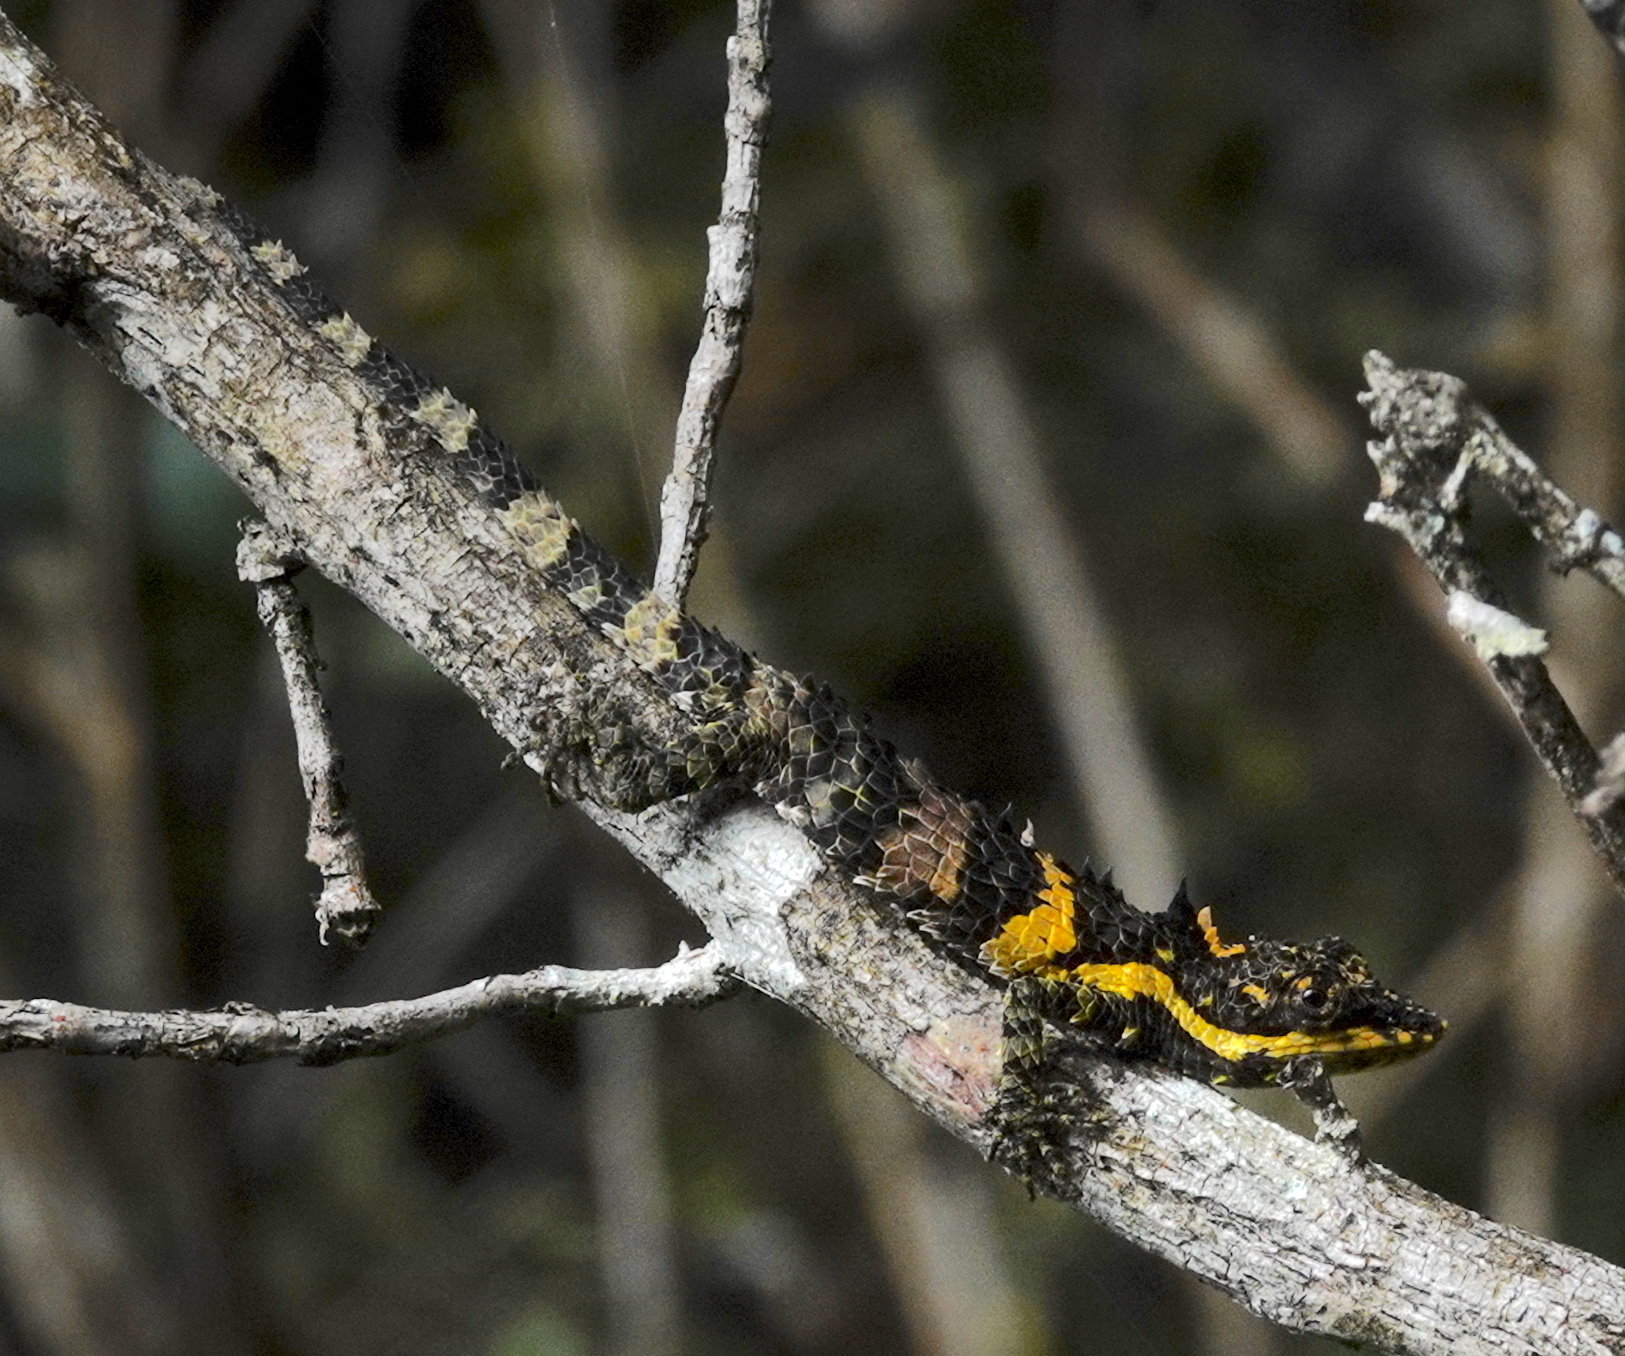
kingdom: Animalia
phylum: Chordata
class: Squamata
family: Agamidae
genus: Cophotis
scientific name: Cophotis ceylanica
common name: Ceylon deaf agama
